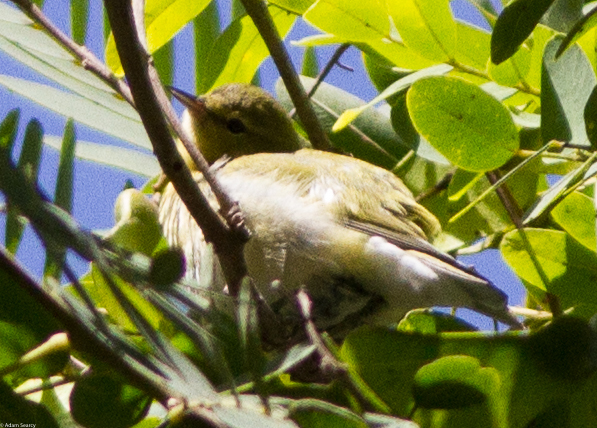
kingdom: Animalia
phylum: Chordata
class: Aves
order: Passeriformes
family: Parulidae
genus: Leiothlypis
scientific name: Leiothlypis peregrina
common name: Tennessee warbler
